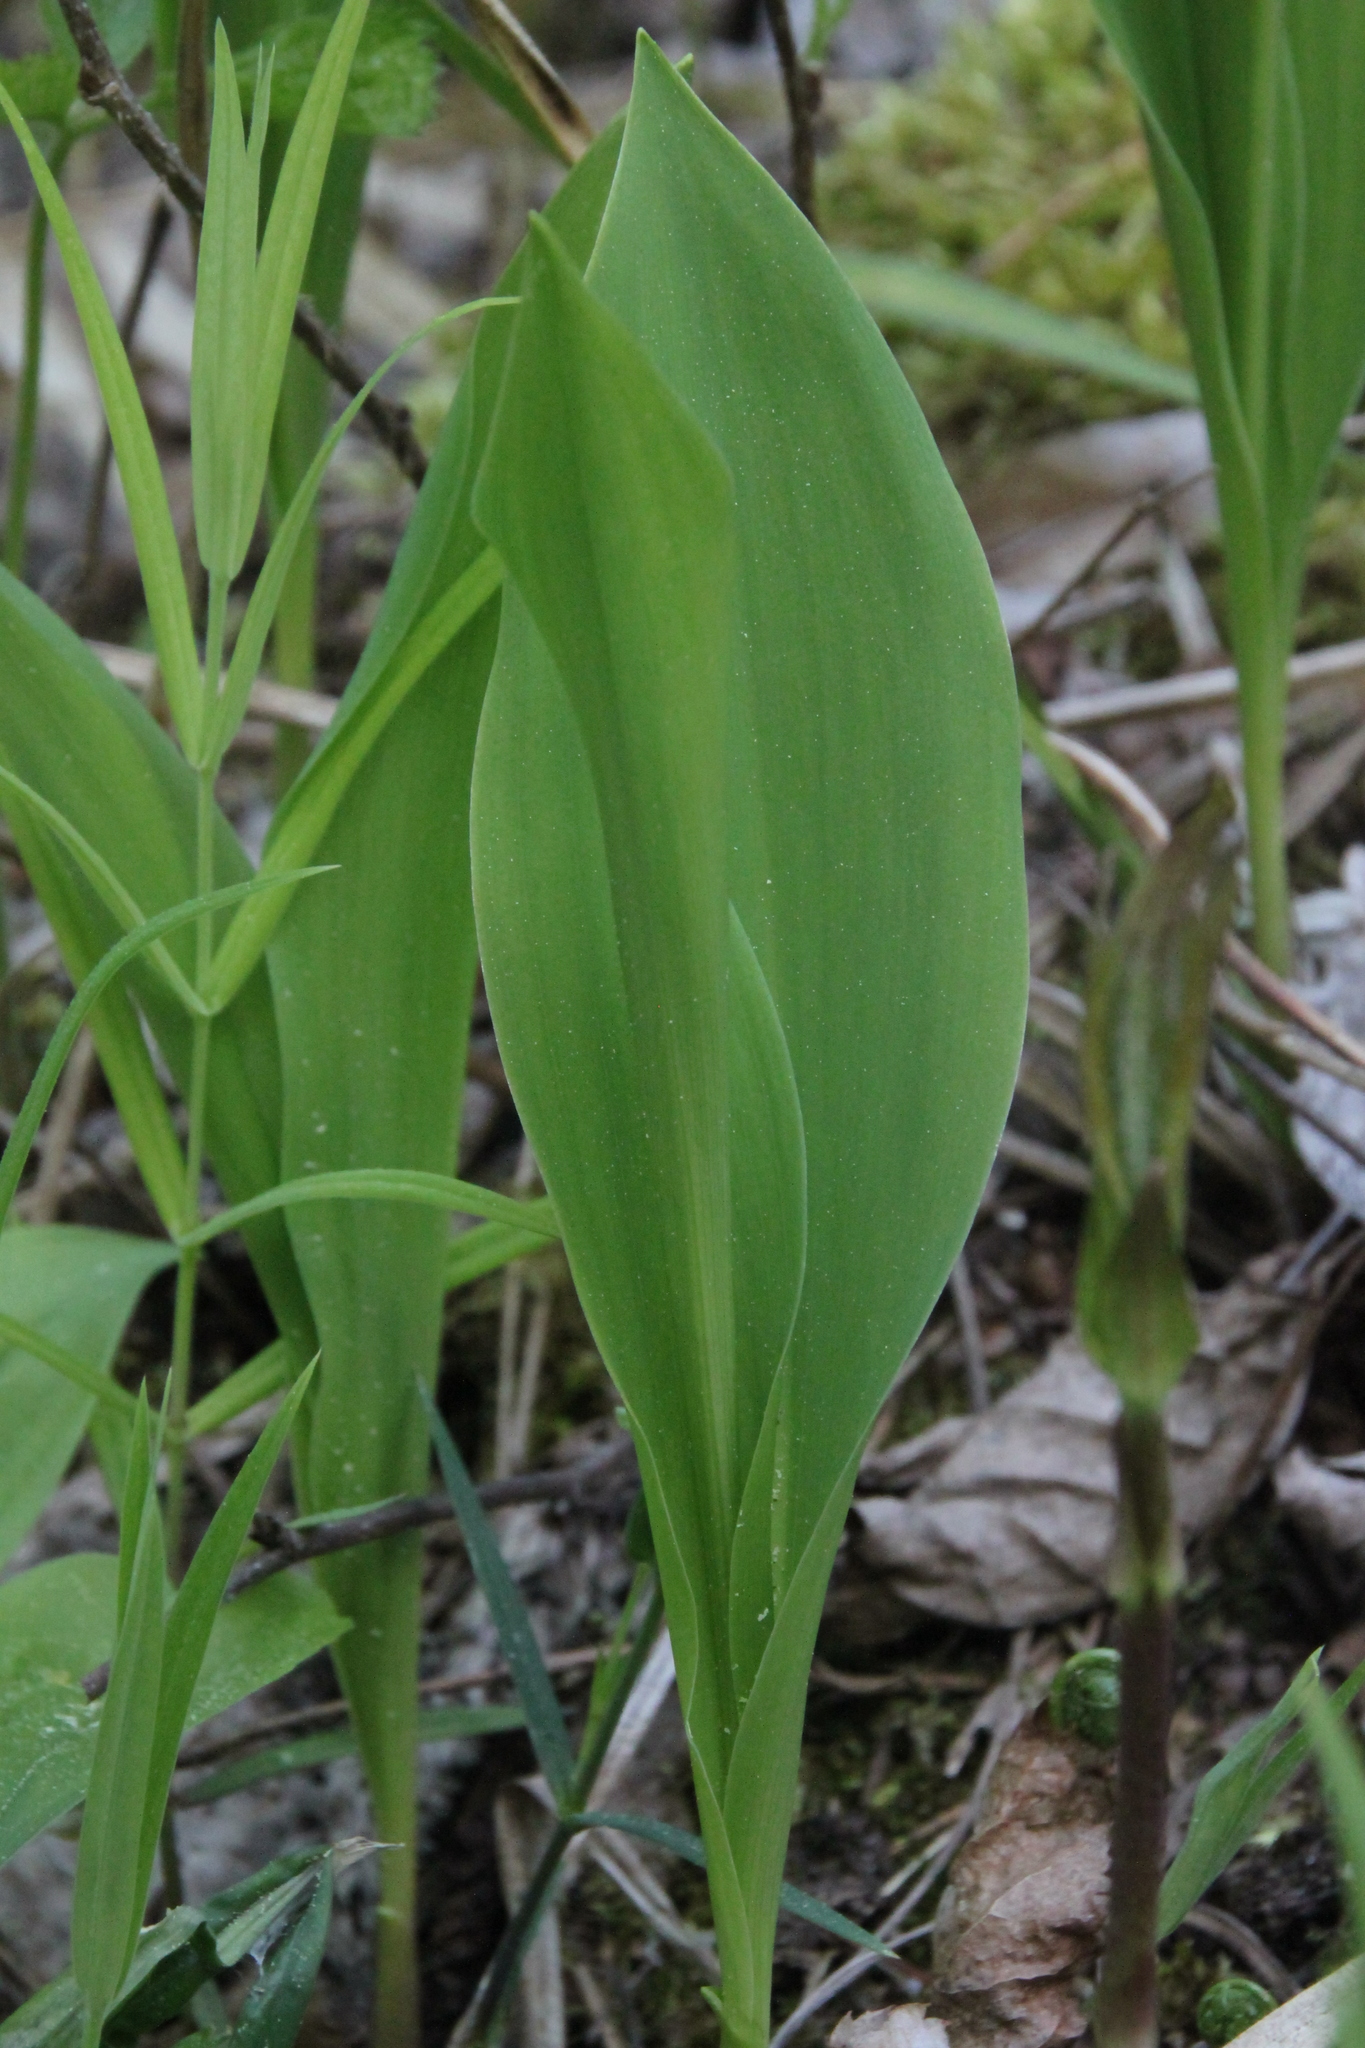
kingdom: Plantae
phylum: Tracheophyta
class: Liliopsida
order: Asparagales
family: Asparagaceae
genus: Convallaria
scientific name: Convallaria majalis
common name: Lily-of-the-valley
